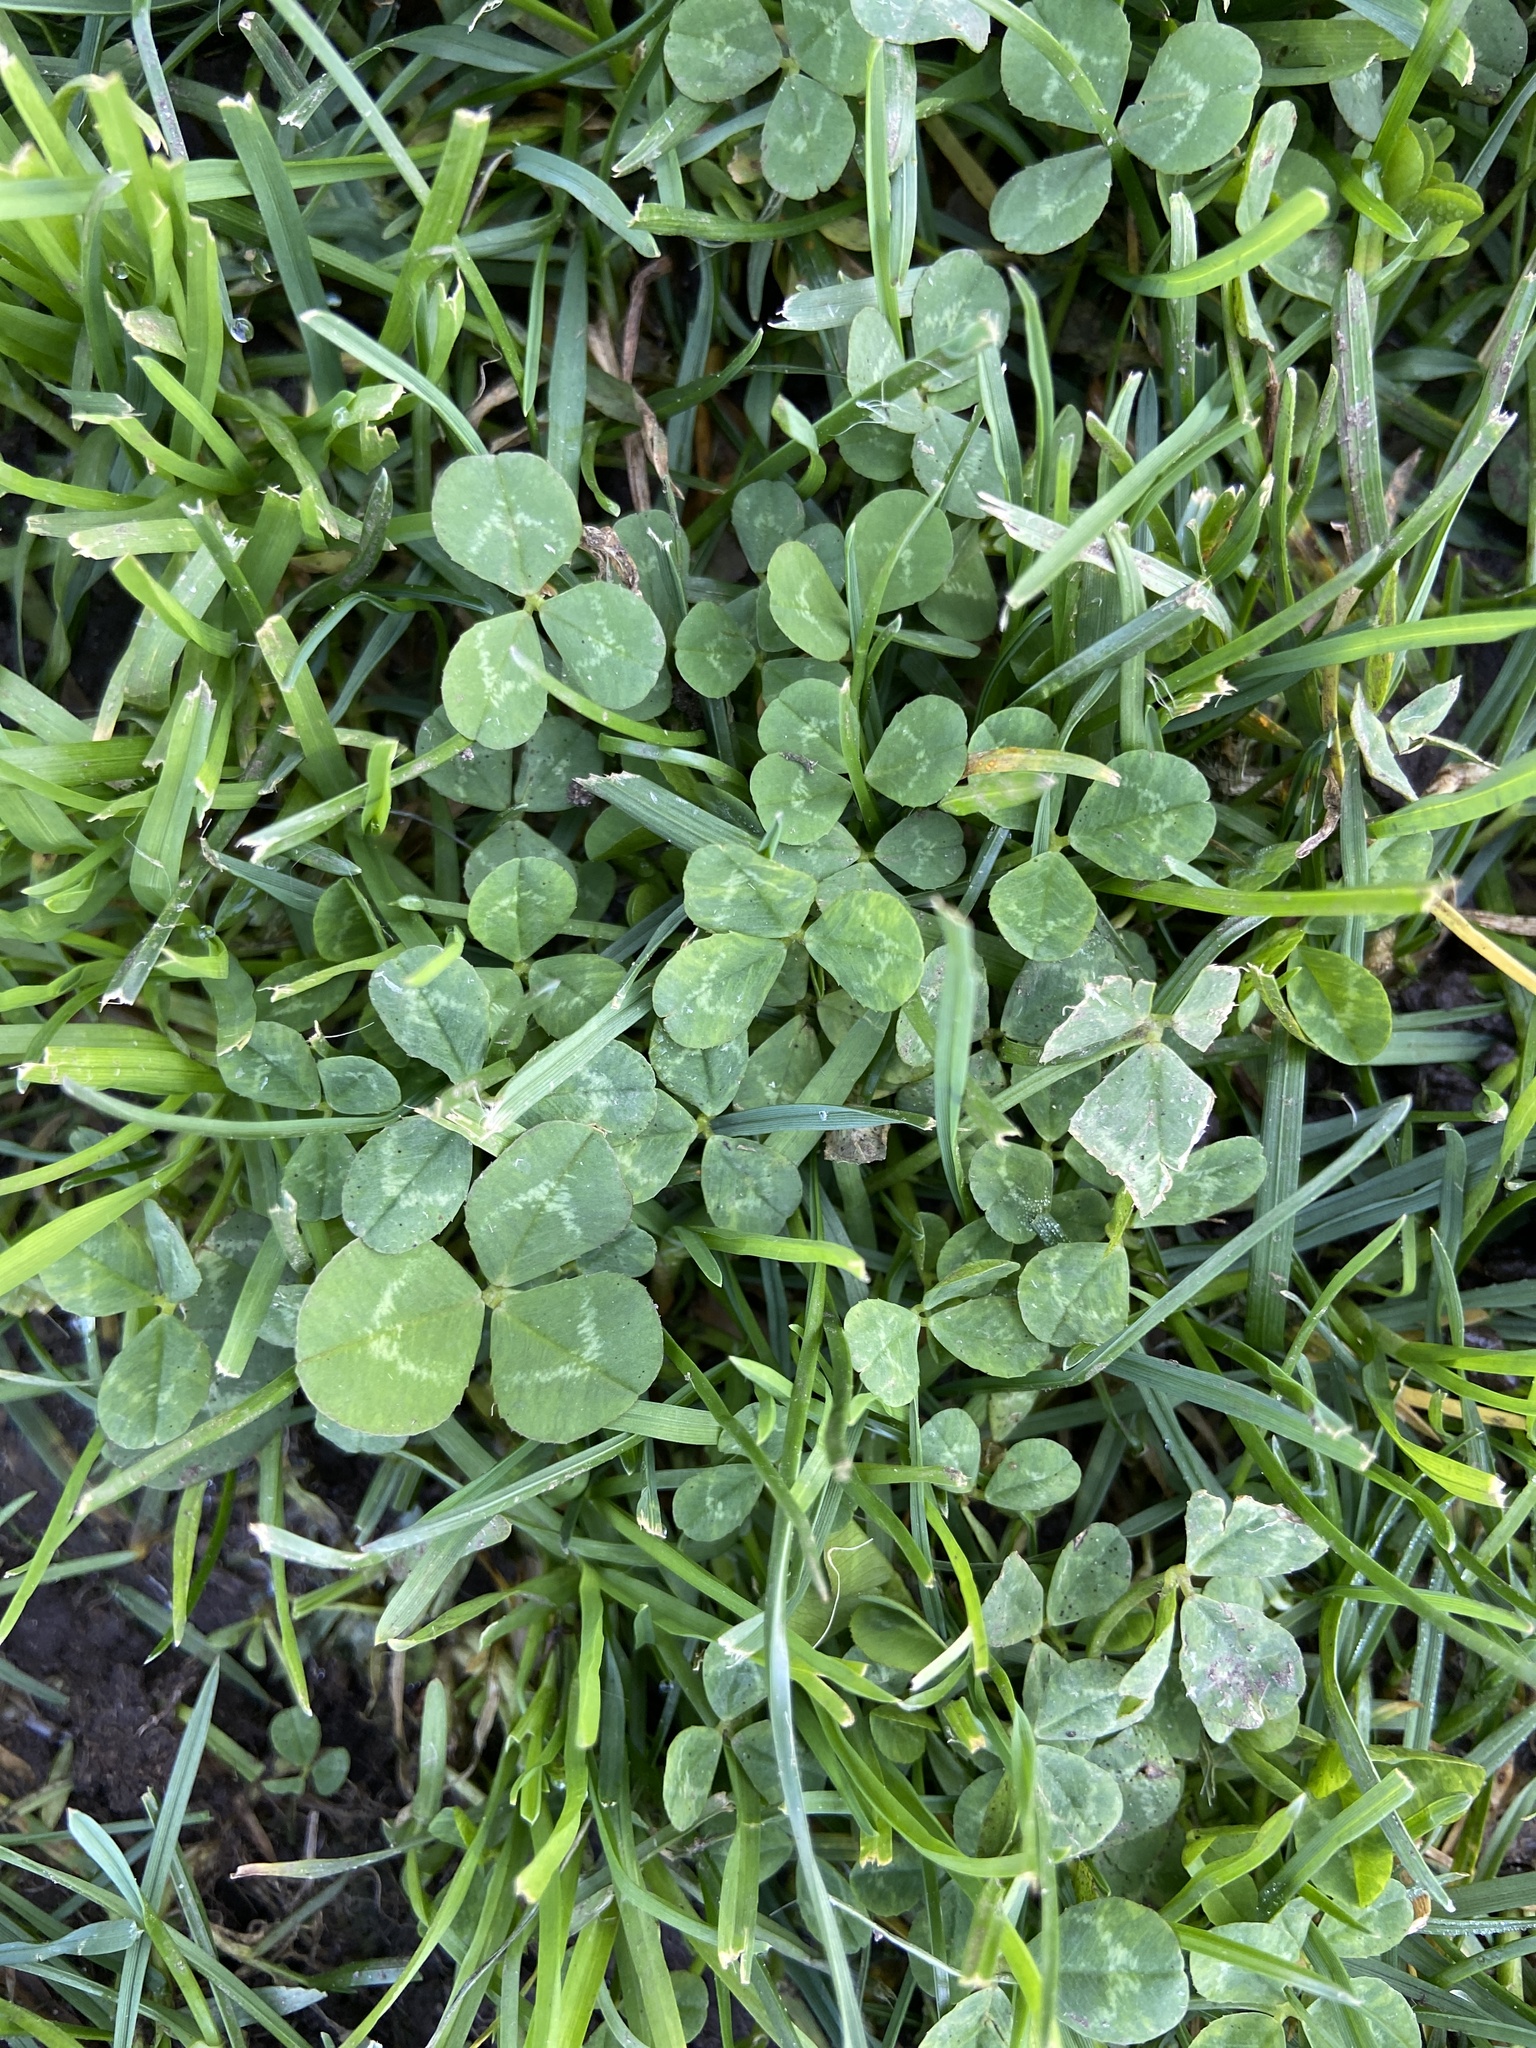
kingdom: Plantae
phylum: Tracheophyta
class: Magnoliopsida
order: Fabales
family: Fabaceae
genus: Trifolium
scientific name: Trifolium repens
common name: White clover
